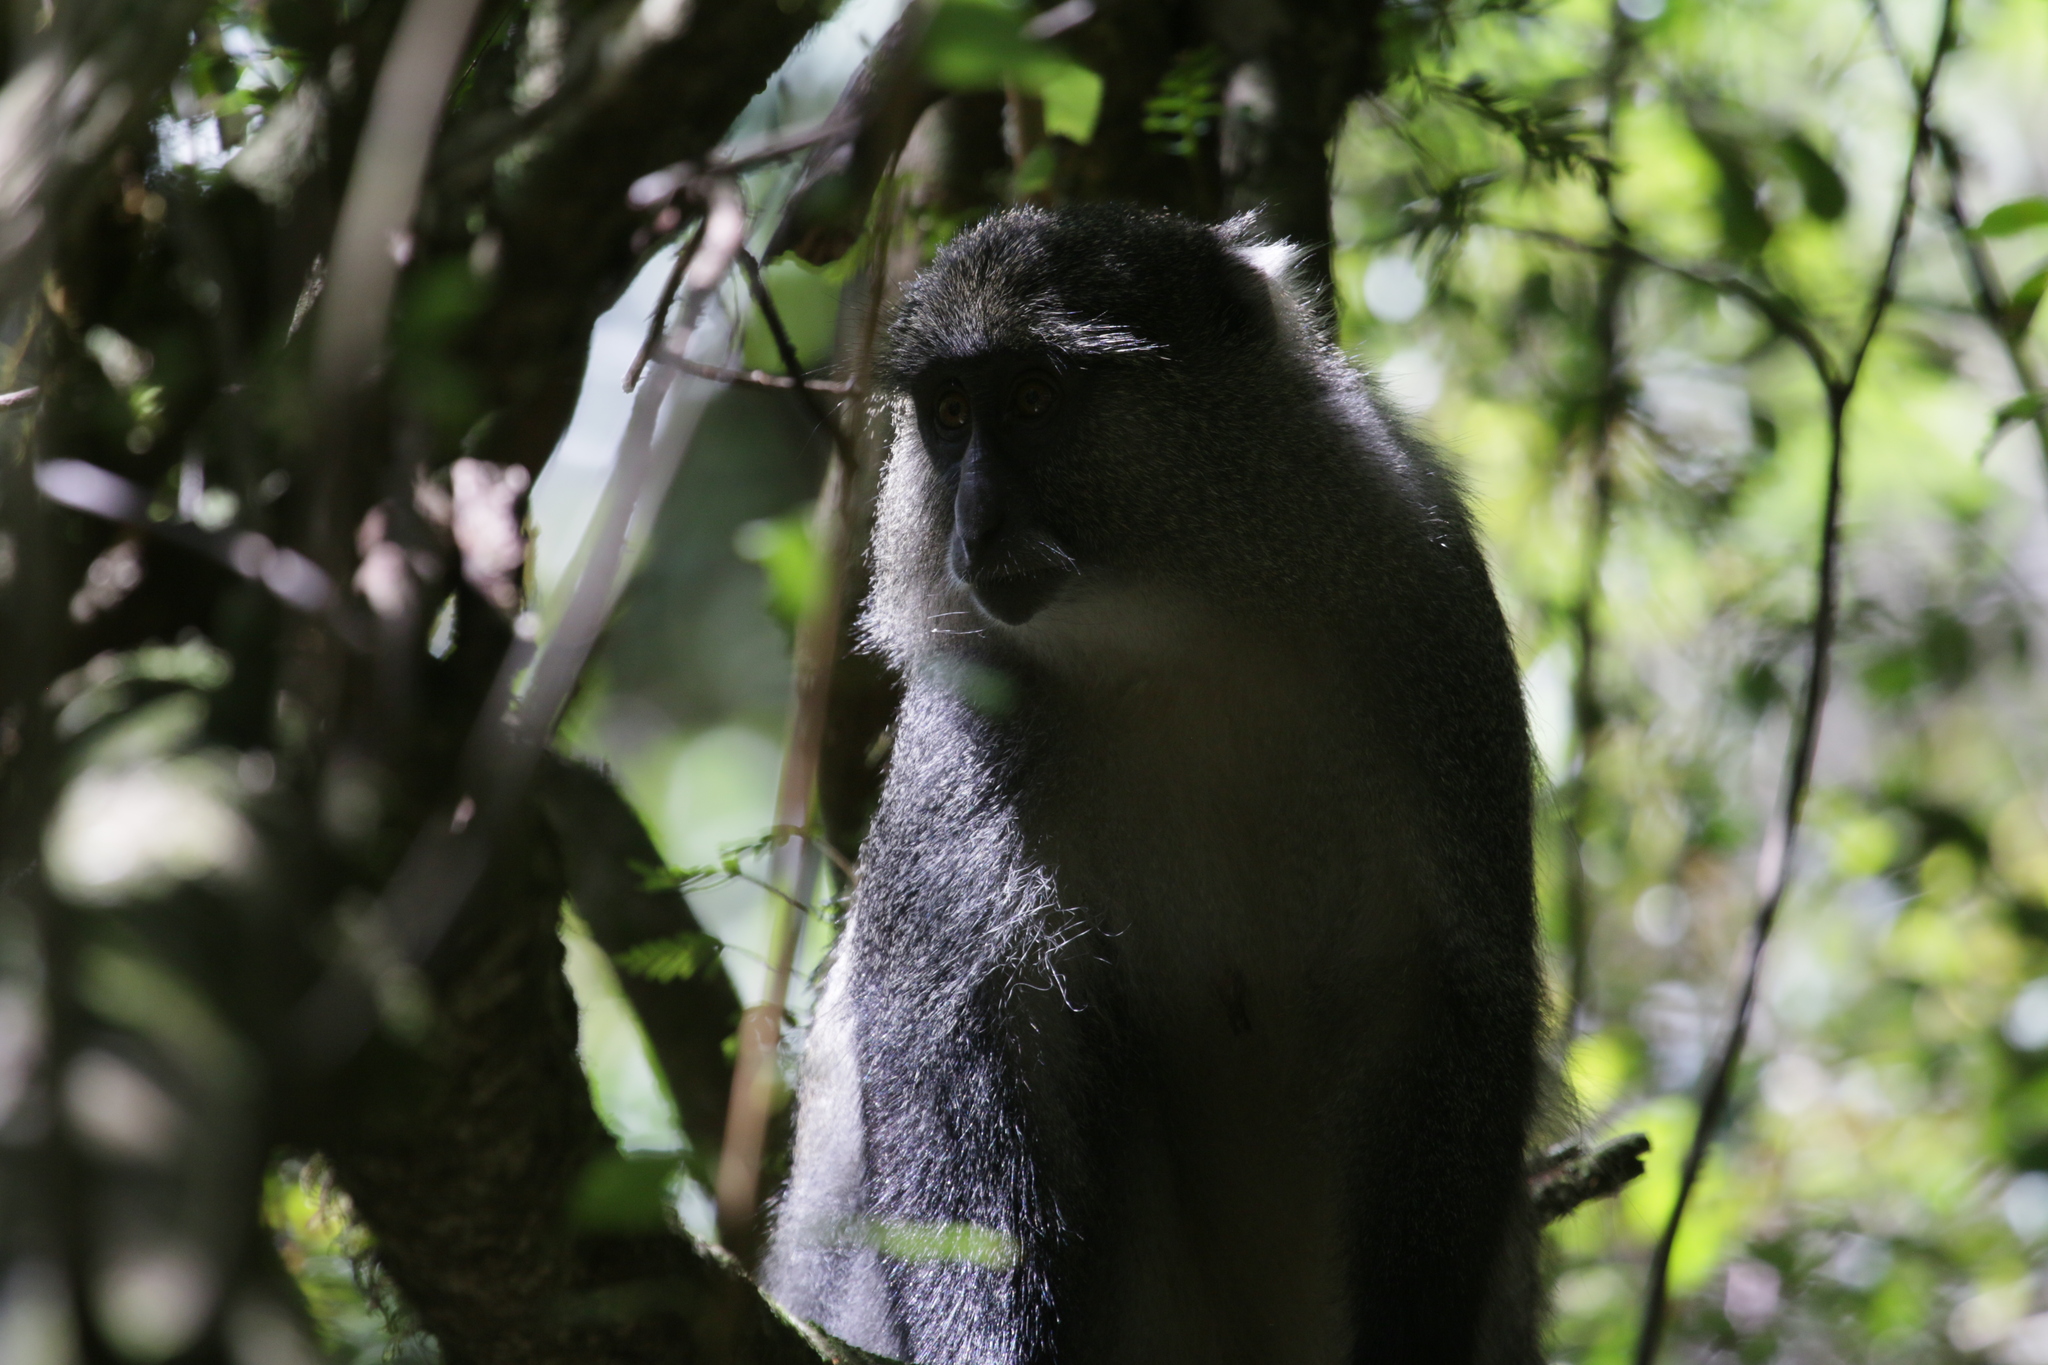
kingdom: Animalia
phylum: Chordata
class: Mammalia
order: Primates
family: Cercopithecidae
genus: Cercopithecus
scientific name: Cercopithecus mitis
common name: Blue monkey
